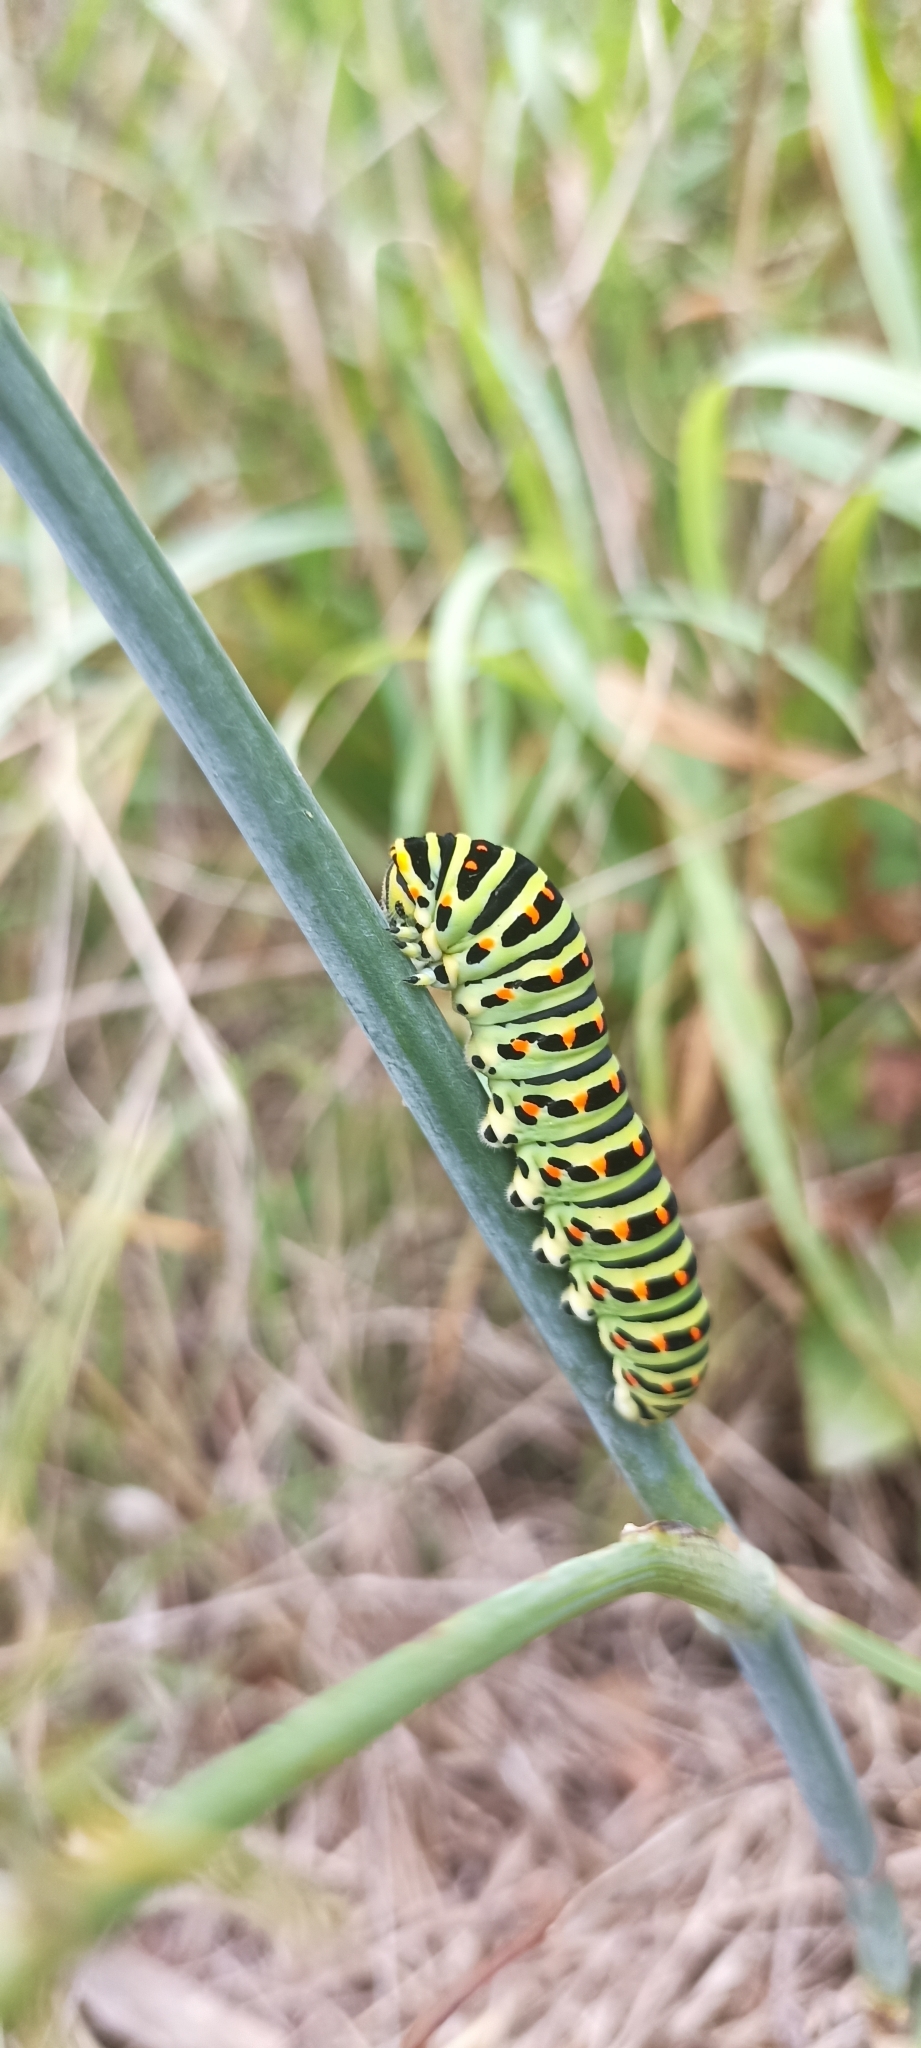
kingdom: Animalia
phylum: Arthropoda
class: Insecta
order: Lepidoptera
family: Papilionidae
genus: Papilio
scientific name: Papilio machaon
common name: Swallowtail
